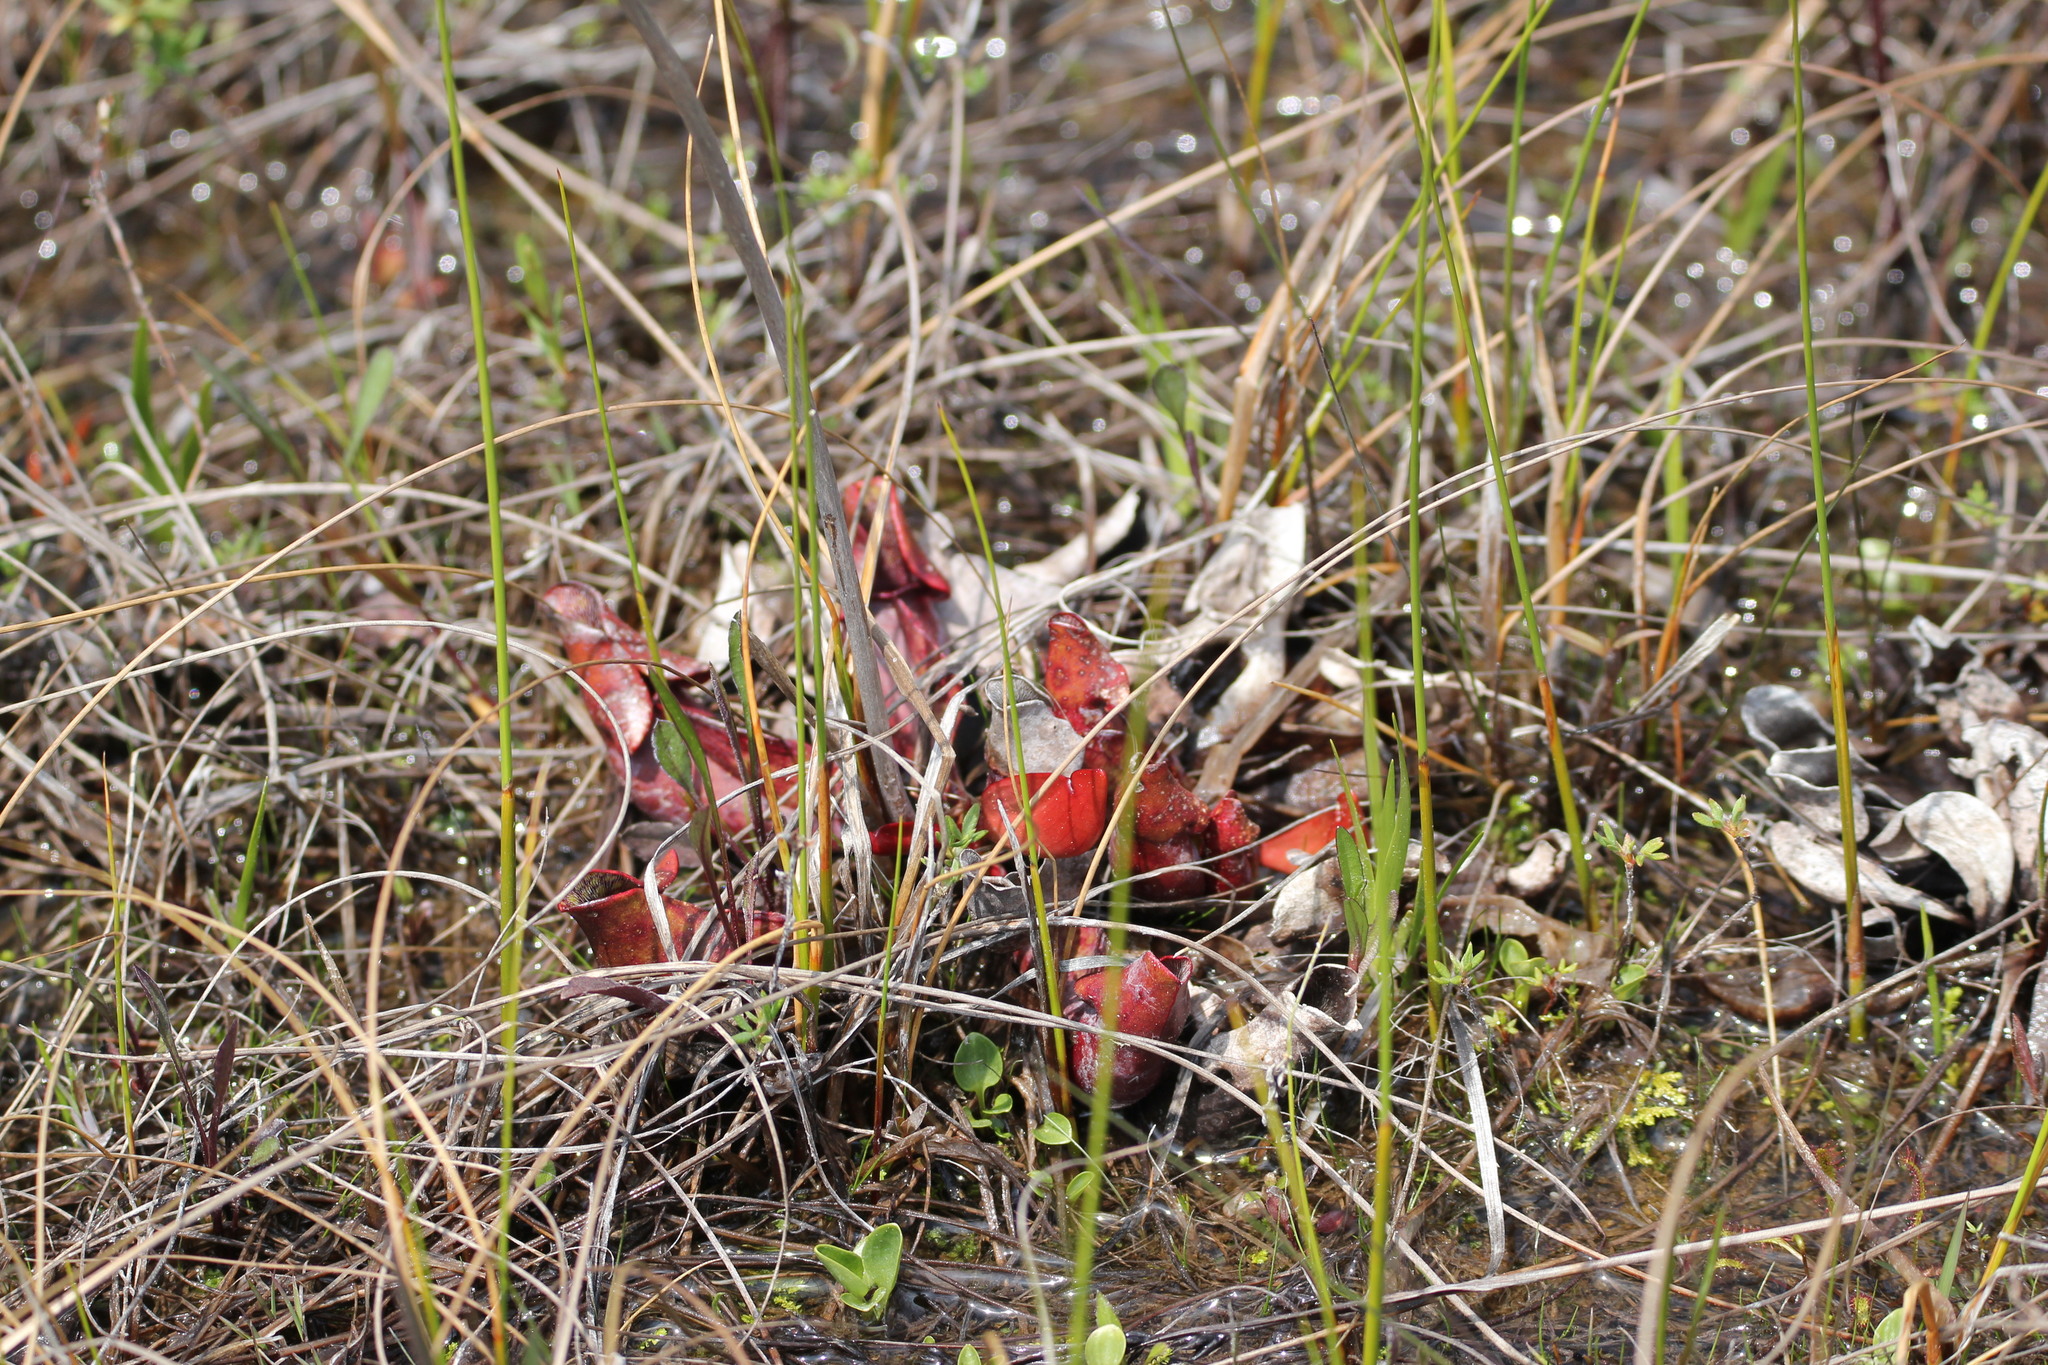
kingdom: Plantae
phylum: Tracheophyta
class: Magnoliopsida
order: Ericales
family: Sarraceniaceae
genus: Sarracenia
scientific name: Sarracenia purpurea
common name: Pitcherplant
